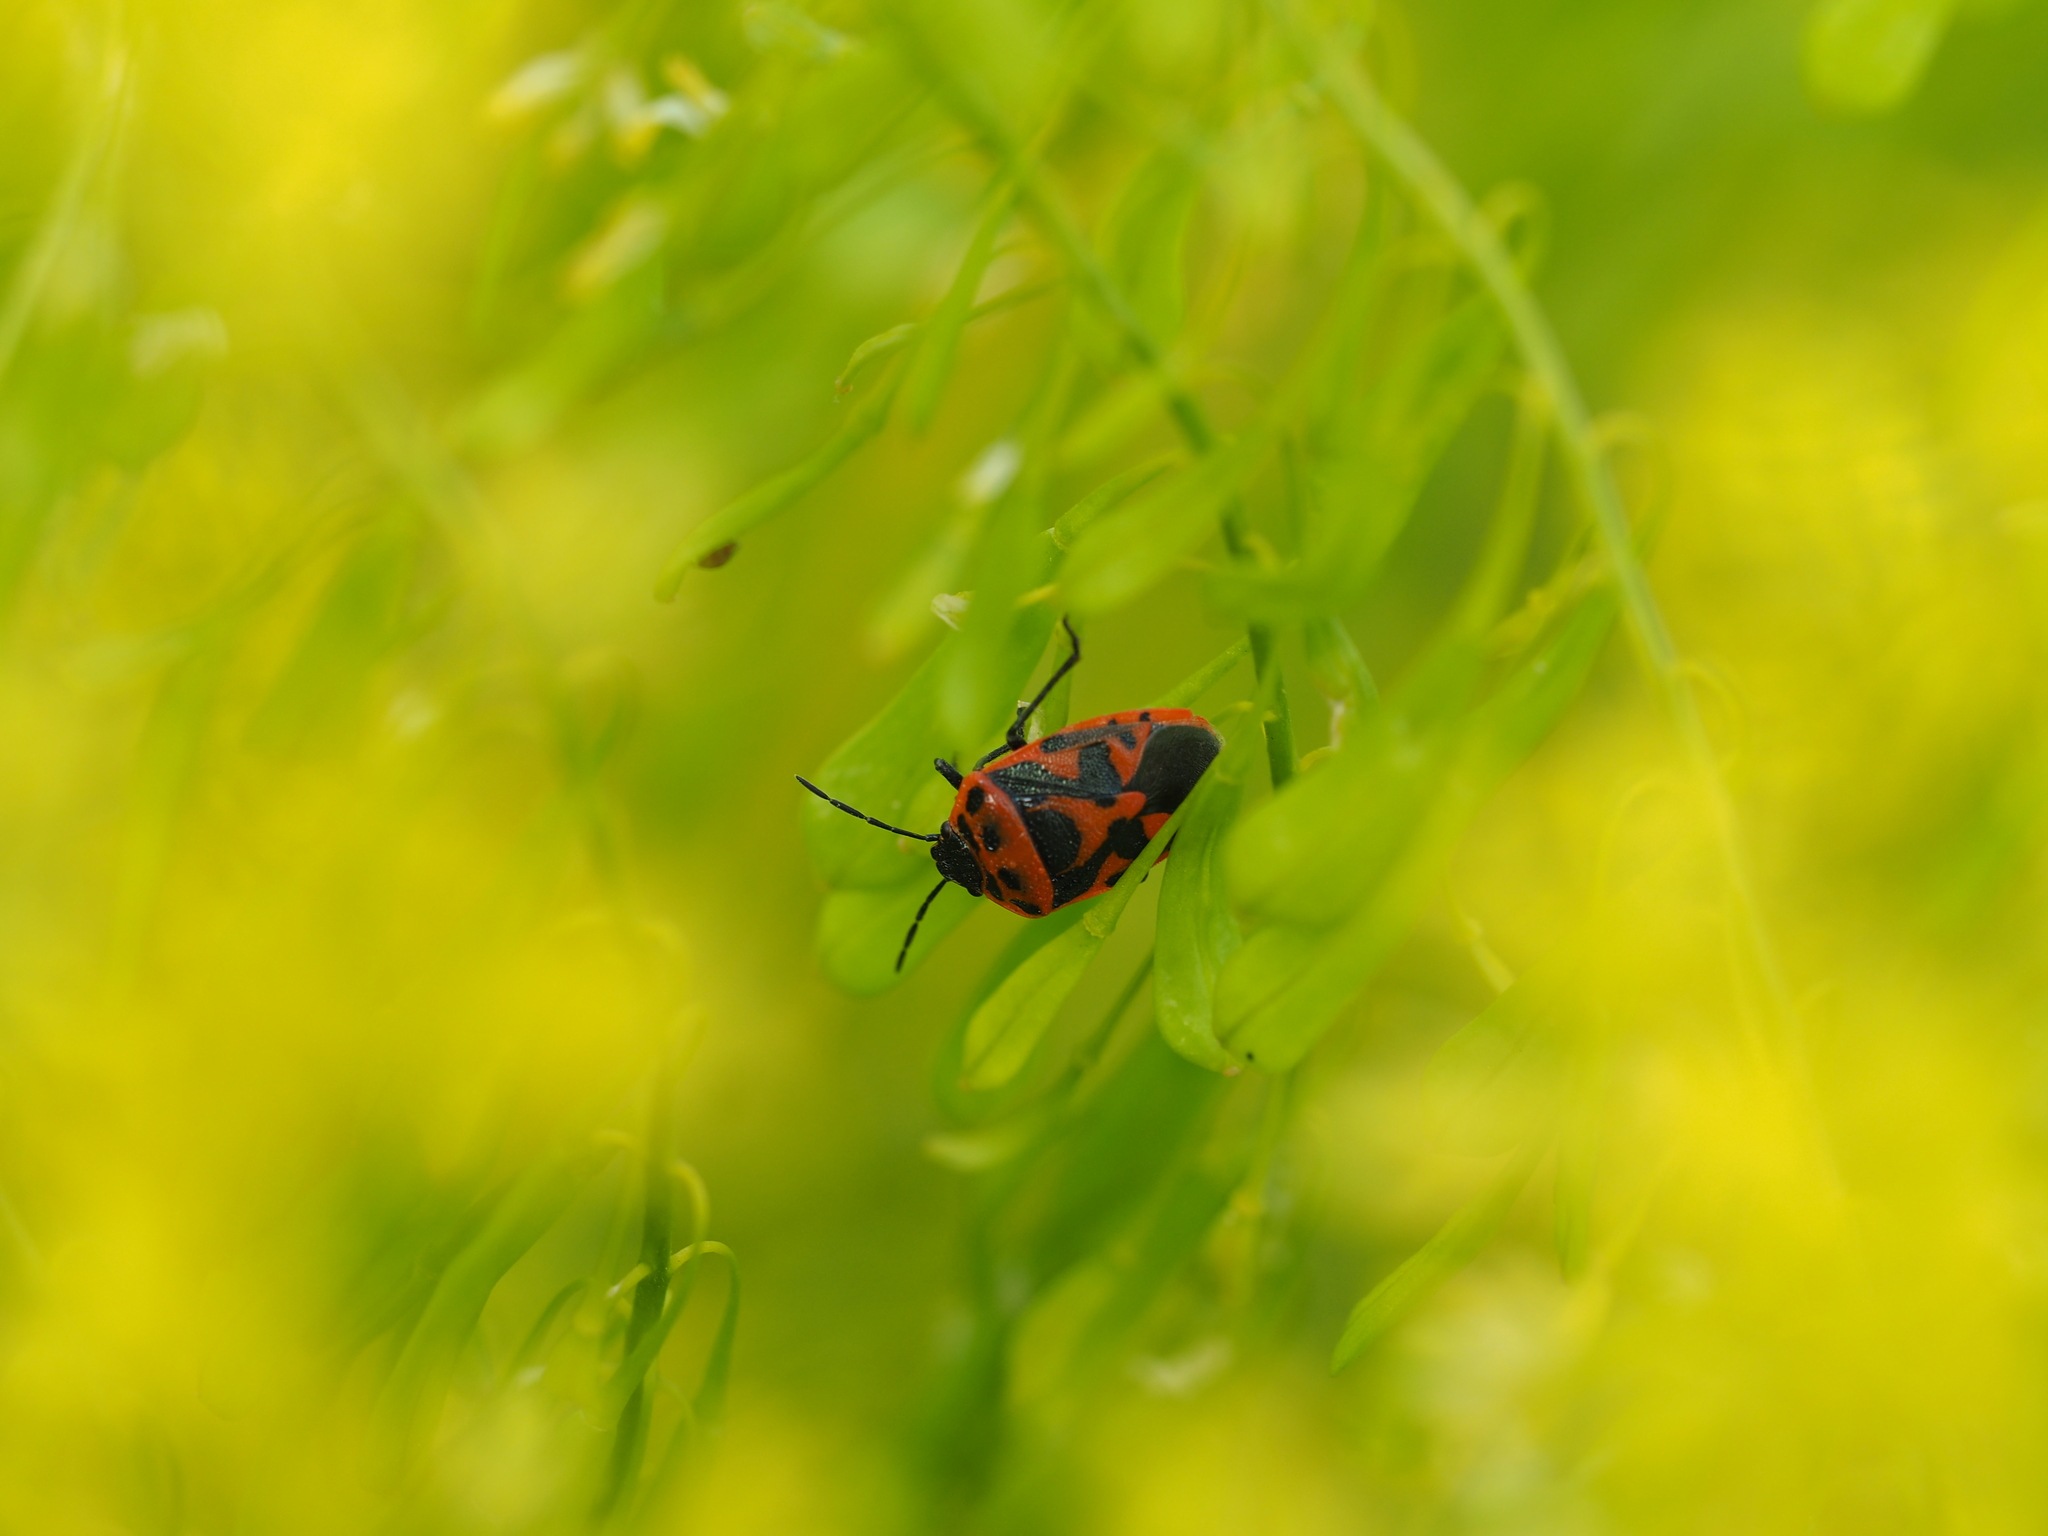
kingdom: Animalia
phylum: Arthropoda
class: Insecta
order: Hemiptera
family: Pentatomidae
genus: Eurydema
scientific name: Eurydema ornata
